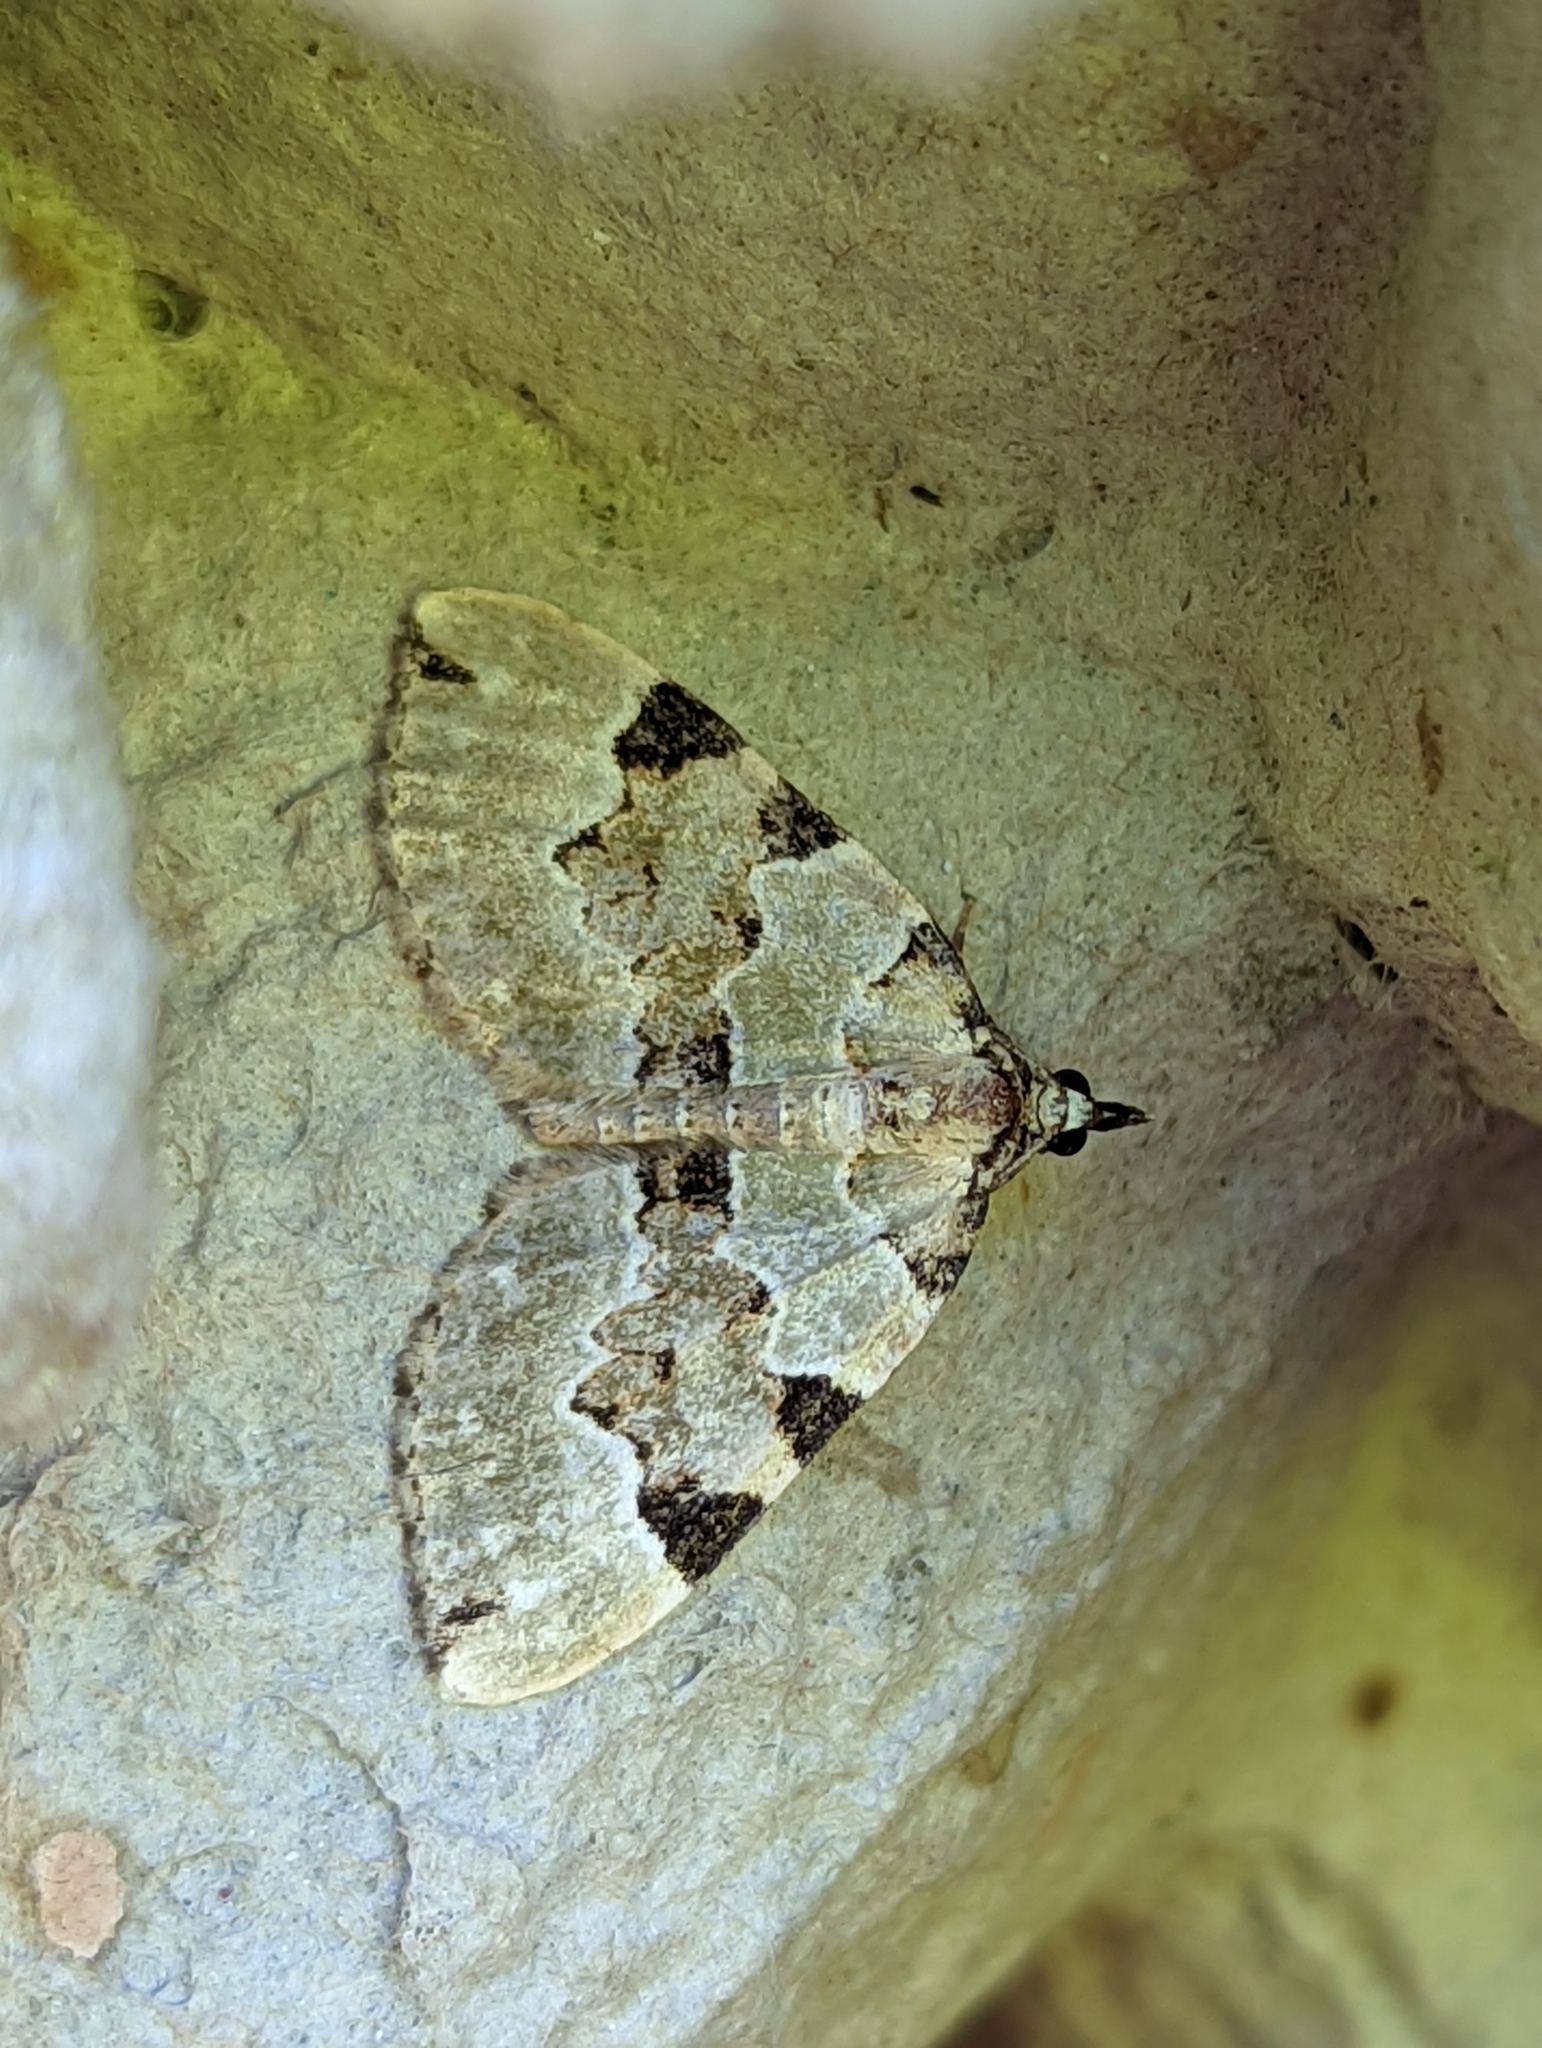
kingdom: Animalia
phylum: Arthropoda
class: Insecta
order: Lepidoptera
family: Geometridae
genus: Colostygia
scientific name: Colostygia pectinataria
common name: Green carpet
